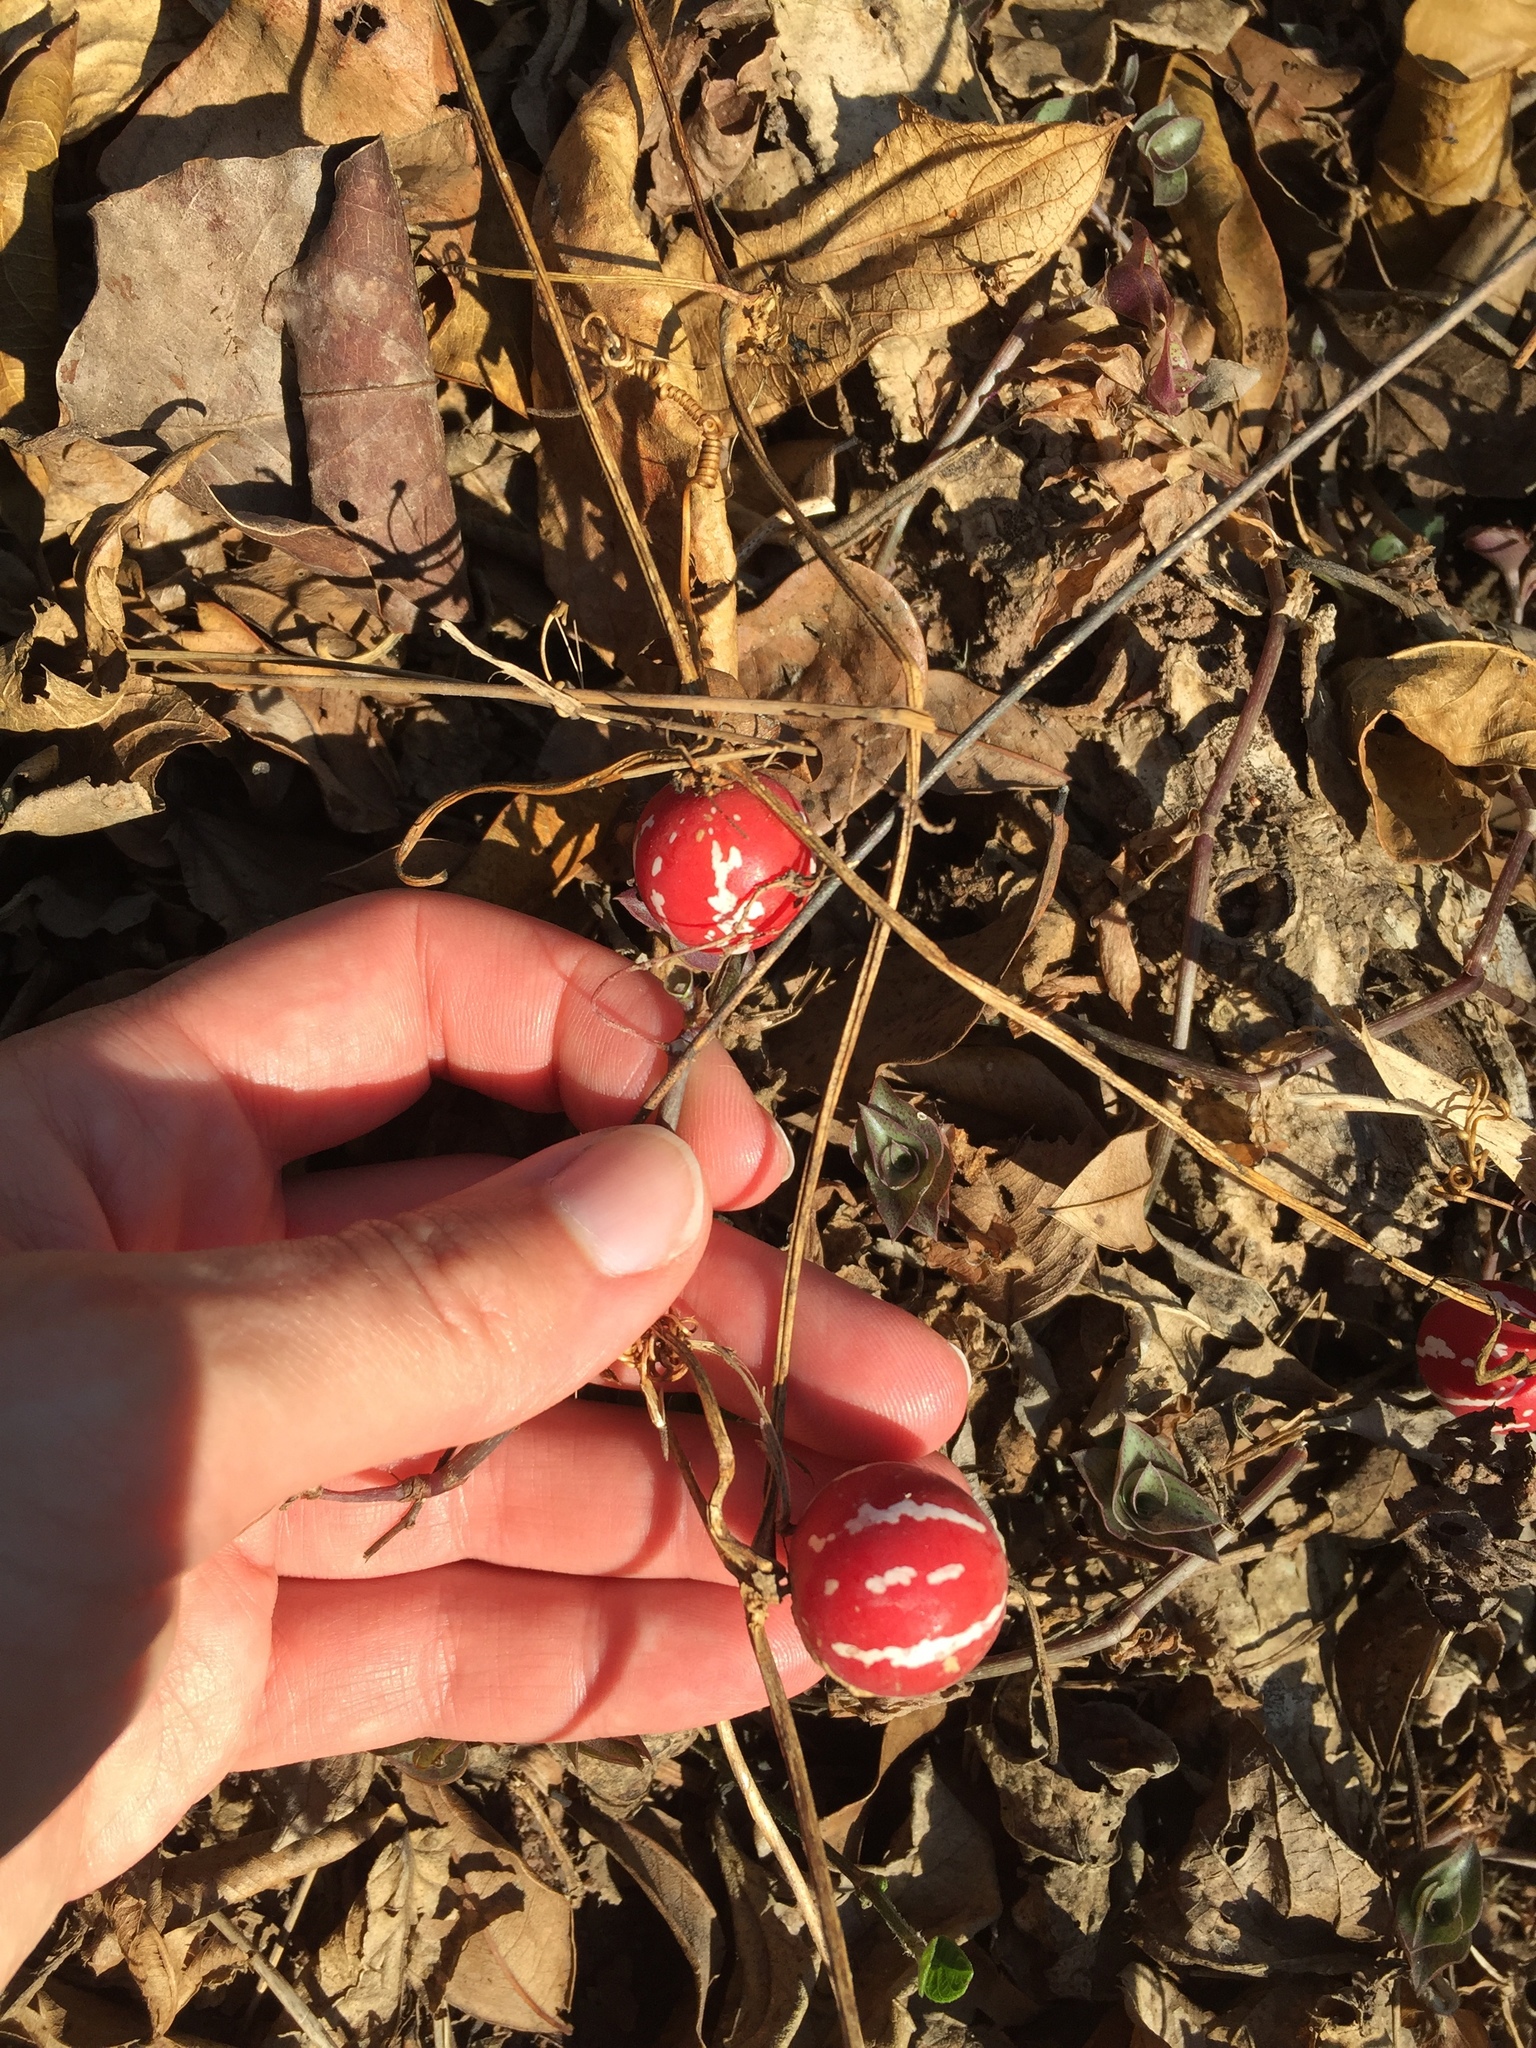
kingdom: Plantae
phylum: Tracheophyta
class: Magnoliopsida
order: Cucurbitales
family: Cucurbitaceae
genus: Diplocyclos
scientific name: Diplocyclos palmatus
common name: Striped-cucumber
